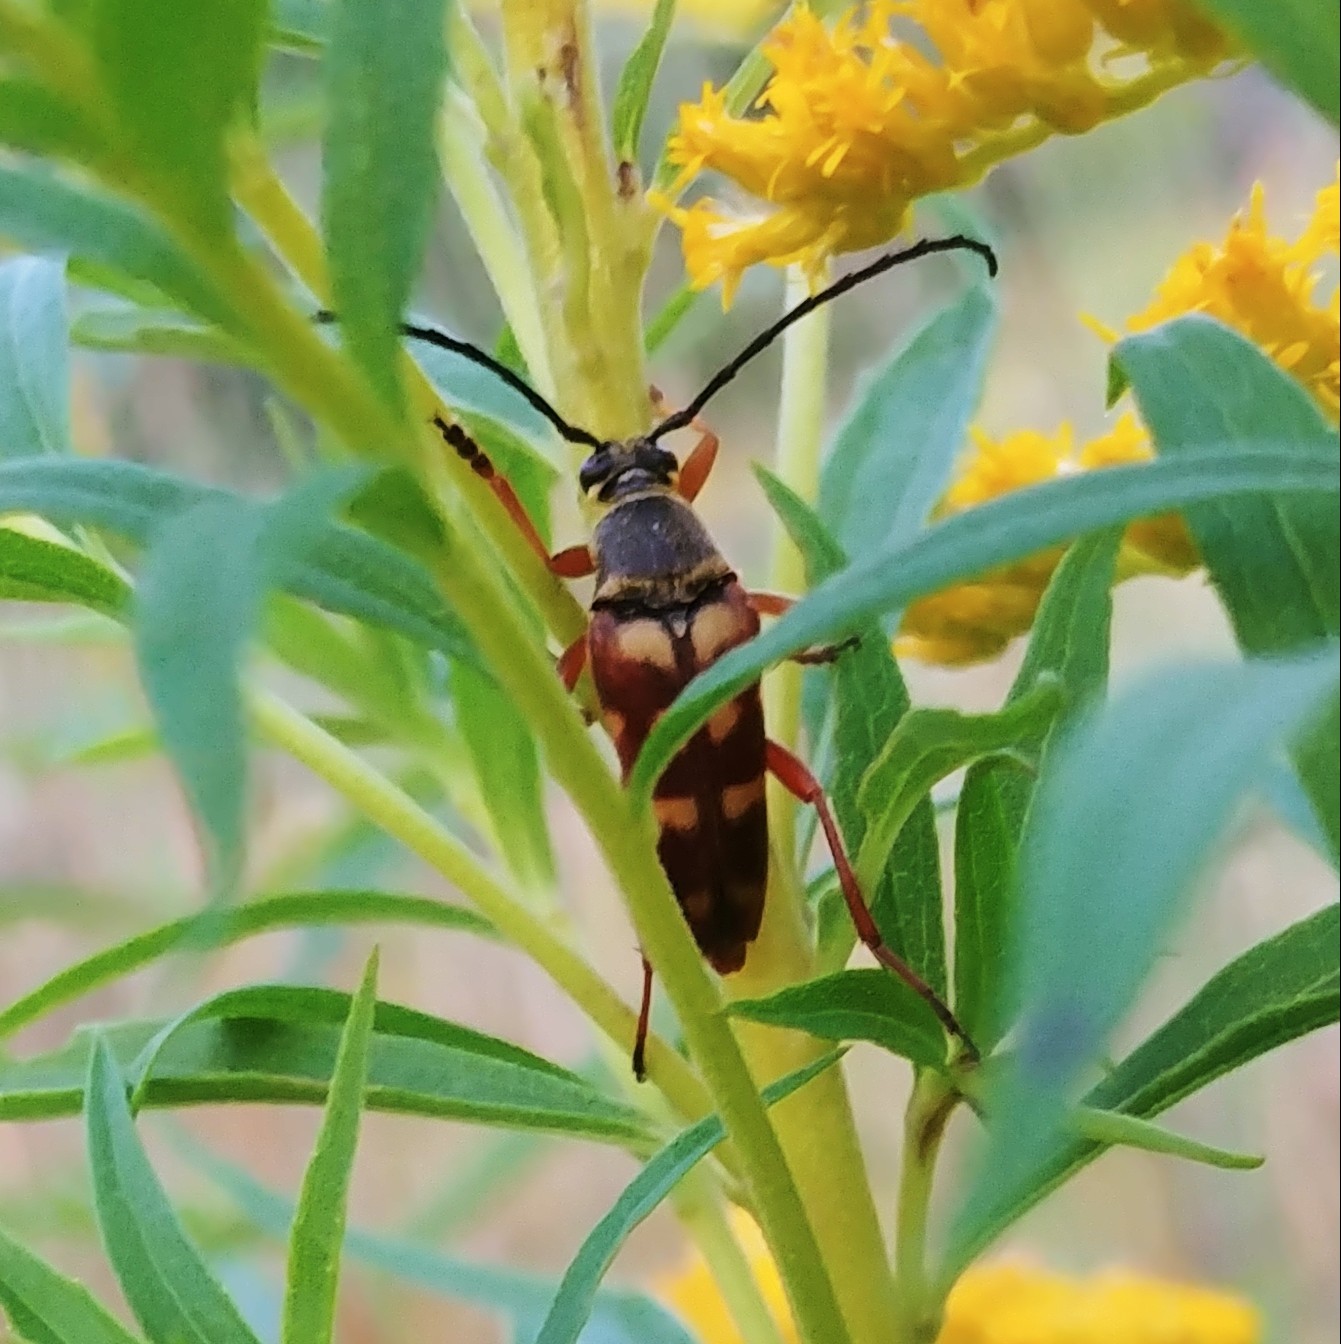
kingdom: Animalia
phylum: Arthropoda
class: Insecta
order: Coleoptera
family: Cerambycidae
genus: Typocerus
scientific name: Typocerus velutinus
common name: Banded longhorn beetle
